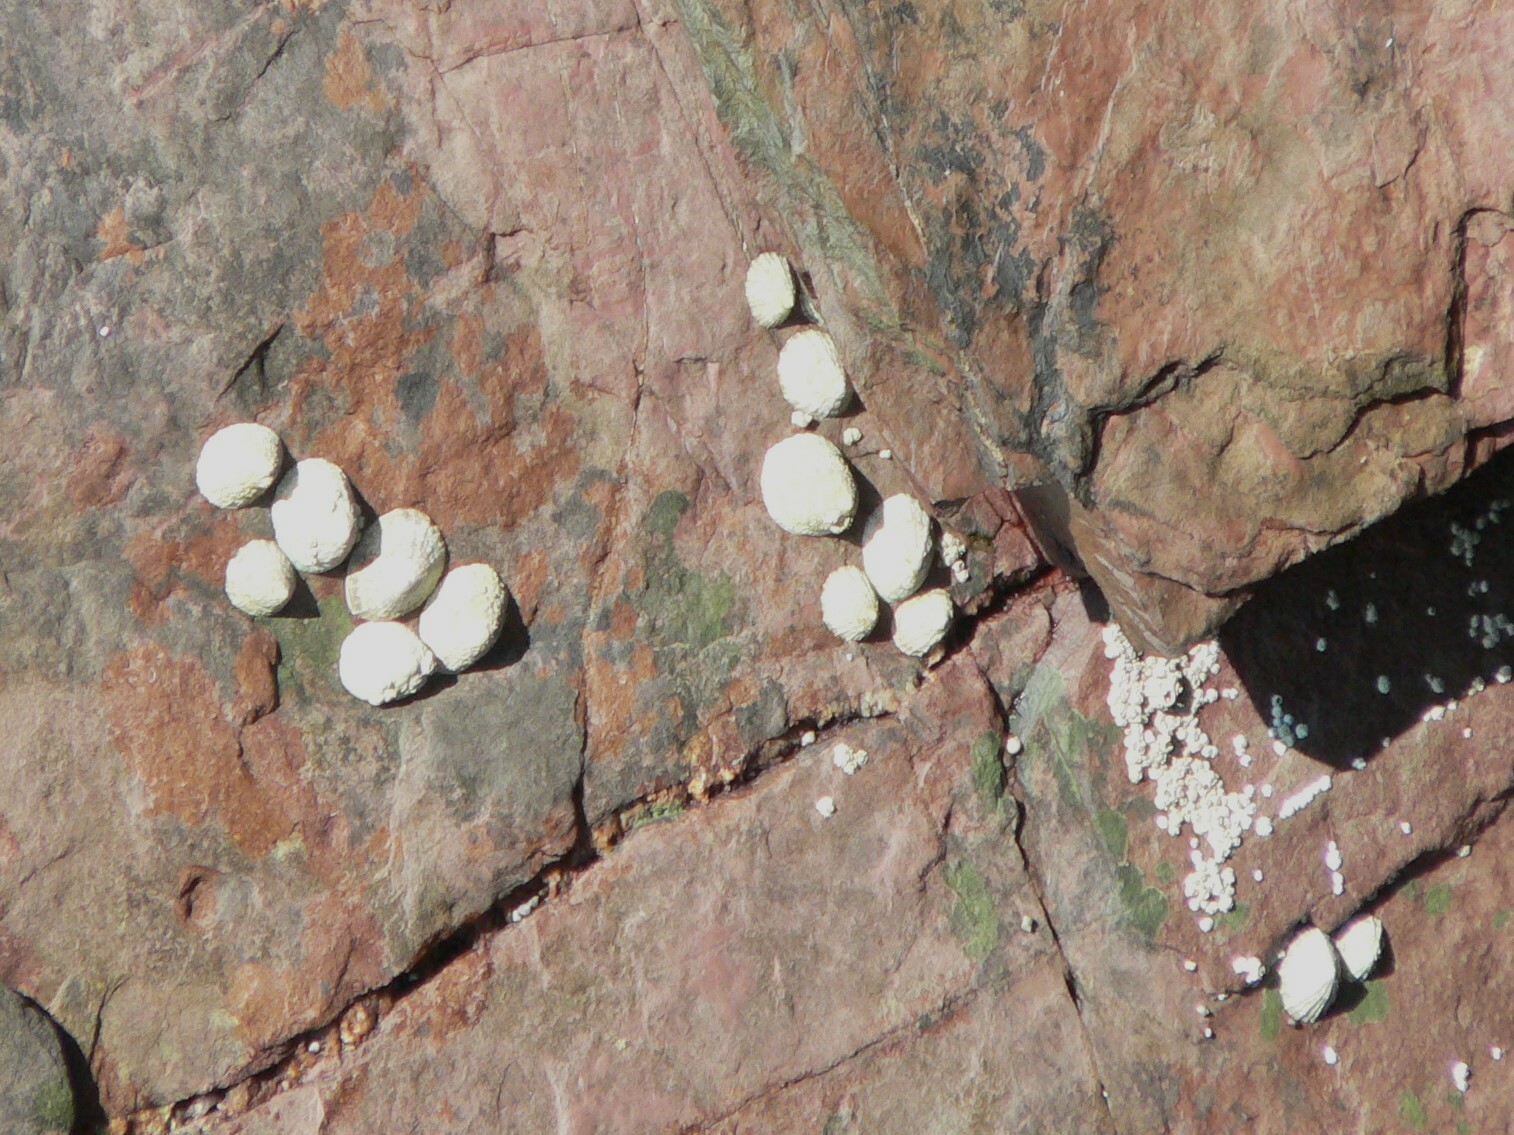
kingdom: Animalia
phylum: Mollusca
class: Gastropoda
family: Patellidae
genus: Patella
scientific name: Patella vulgata
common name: Common limpet
